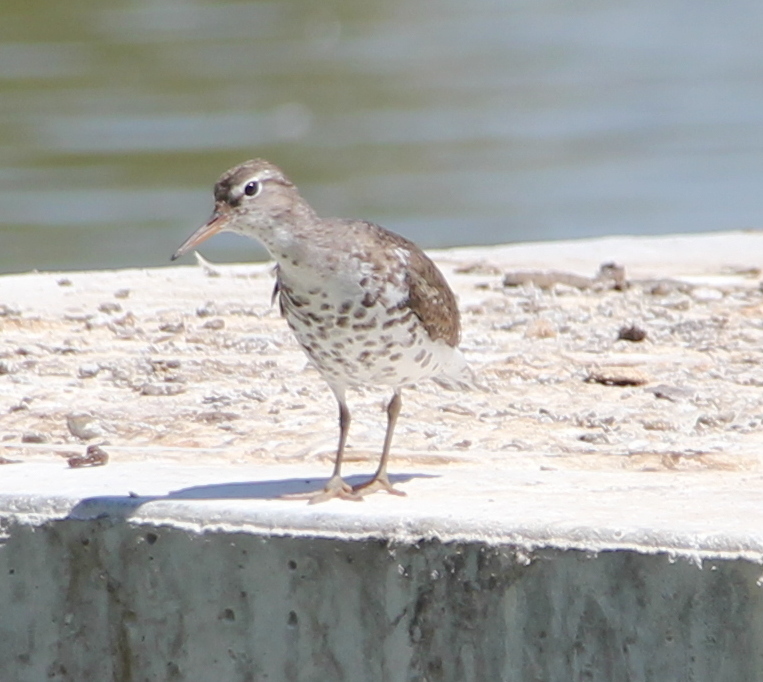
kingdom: Animalia
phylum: Chordata
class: Aves
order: Charadriiformes
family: Scolopacidae
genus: Actitis
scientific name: Actitis macularius
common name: Spotted sandpiper
